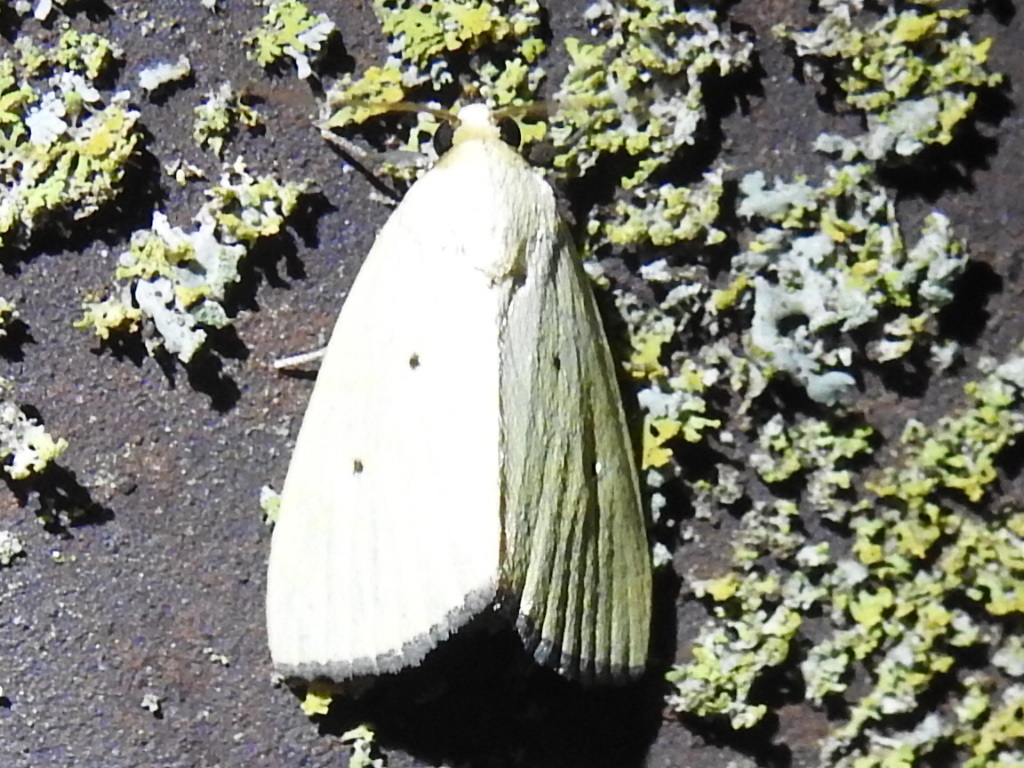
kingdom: Animalia
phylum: Arthropoda
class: Insecta
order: Lepidoptera
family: Noctuidae
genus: Marimatha
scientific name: Marimatha nigrofimbria
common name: Black-bordered lemon moth
